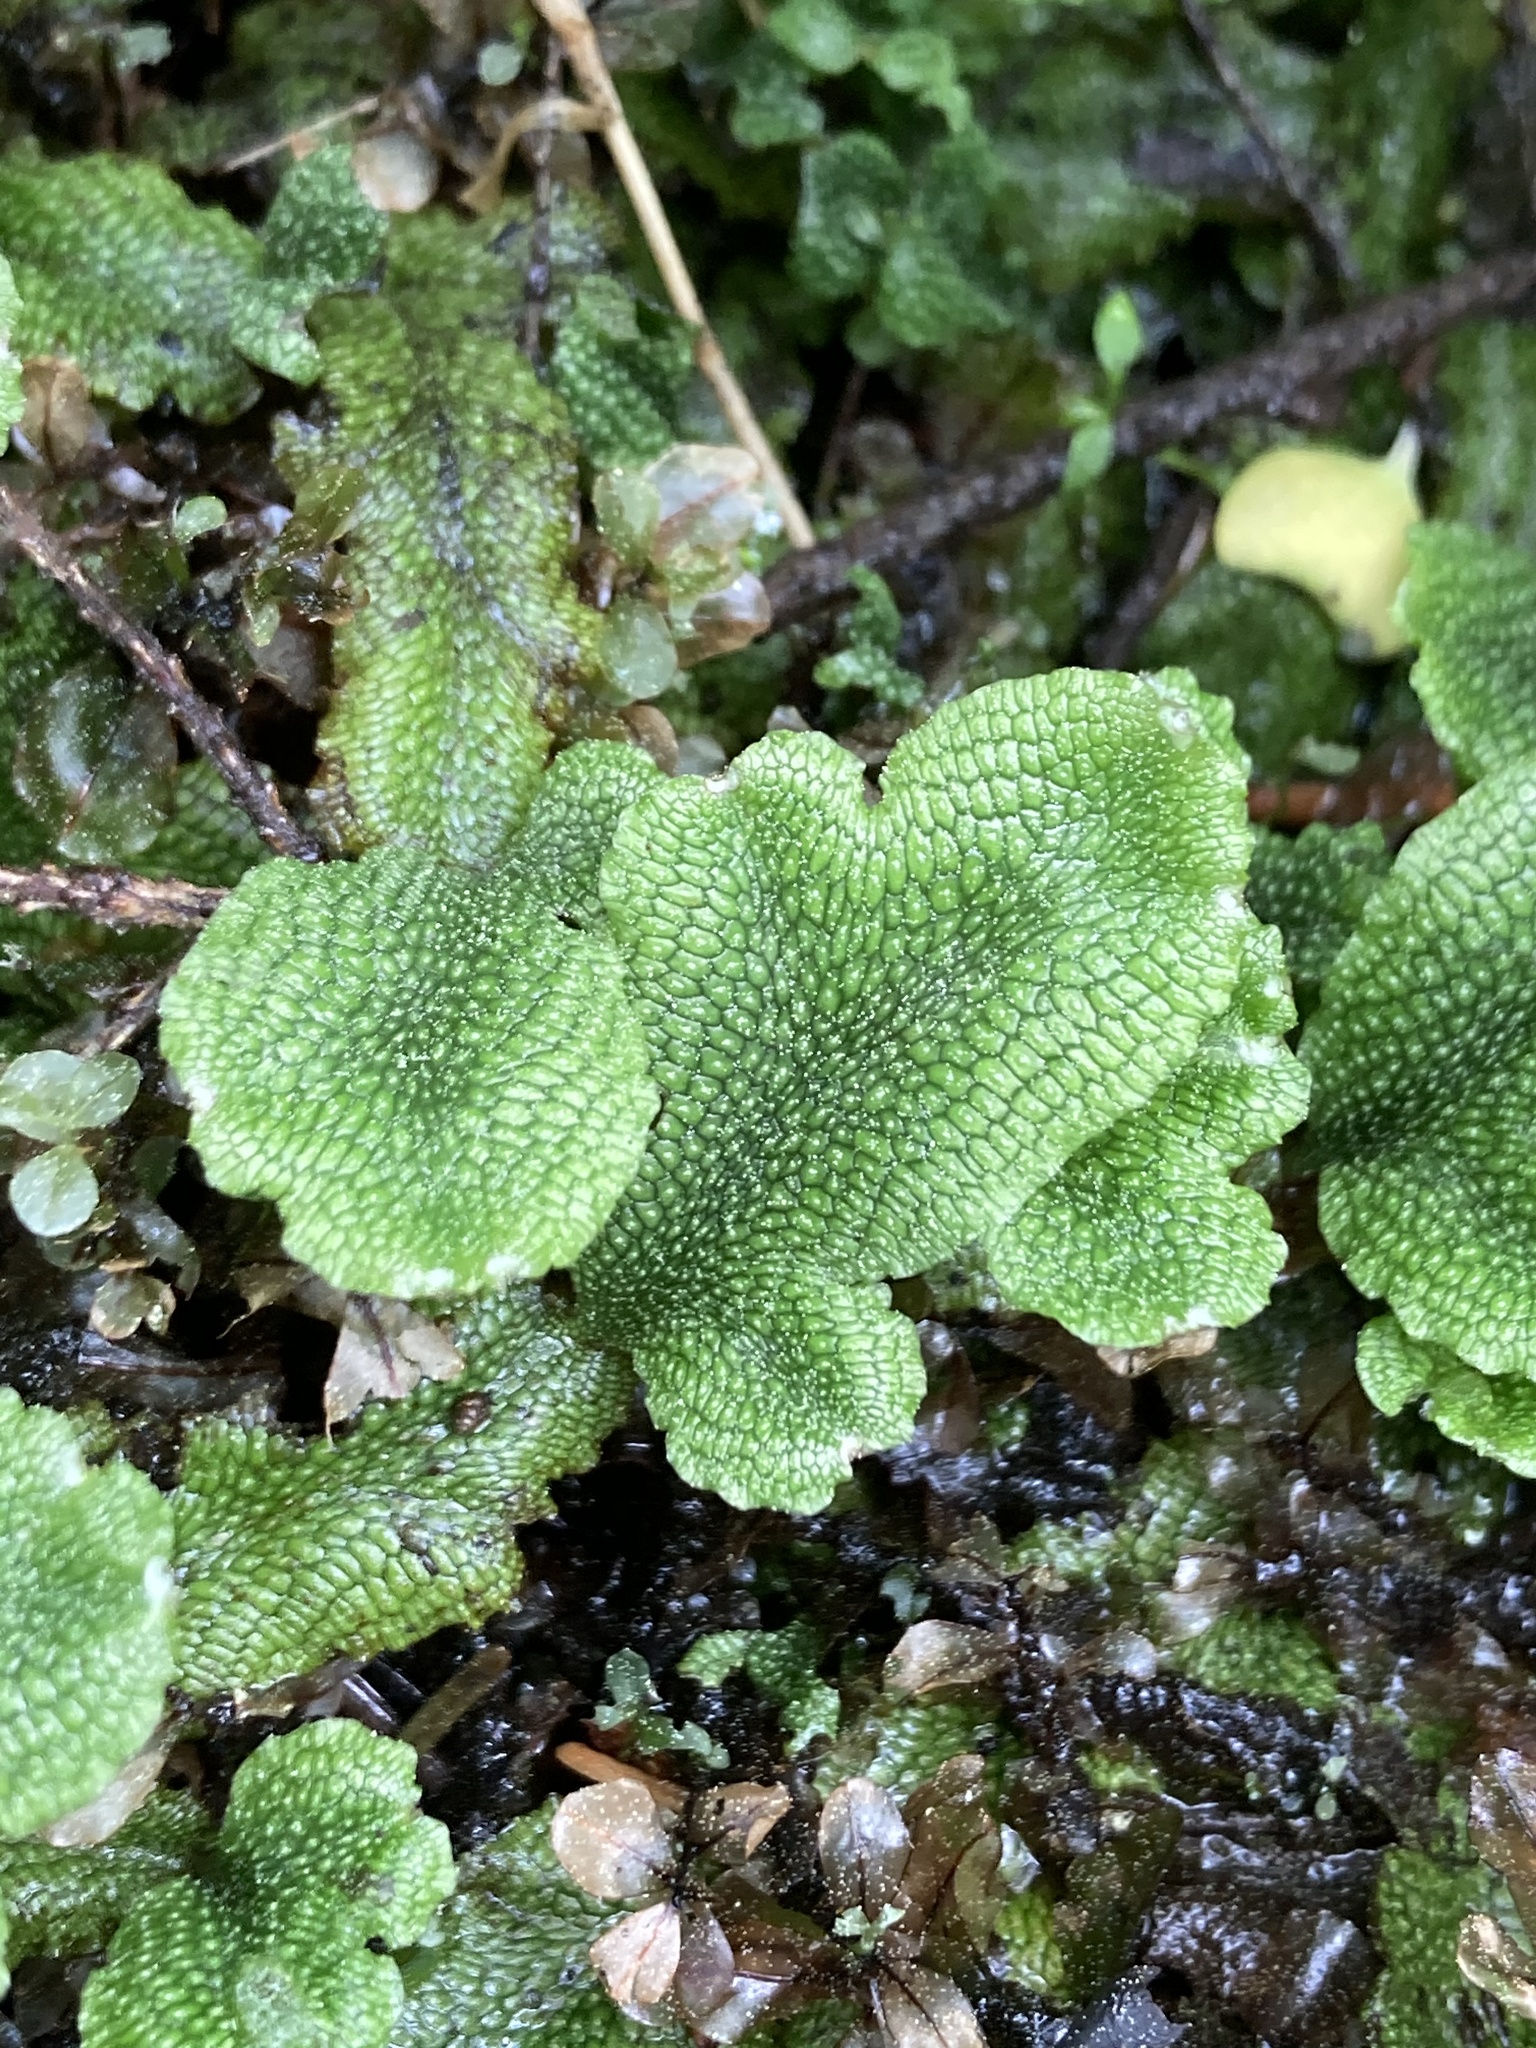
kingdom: Plantae
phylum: Marchantiophyta
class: Marchantiopsida
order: Marchantiales
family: Conocephalaceae
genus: Conocephalum
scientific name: Conocephalum salebrosum
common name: Cat-tongue liverwort
